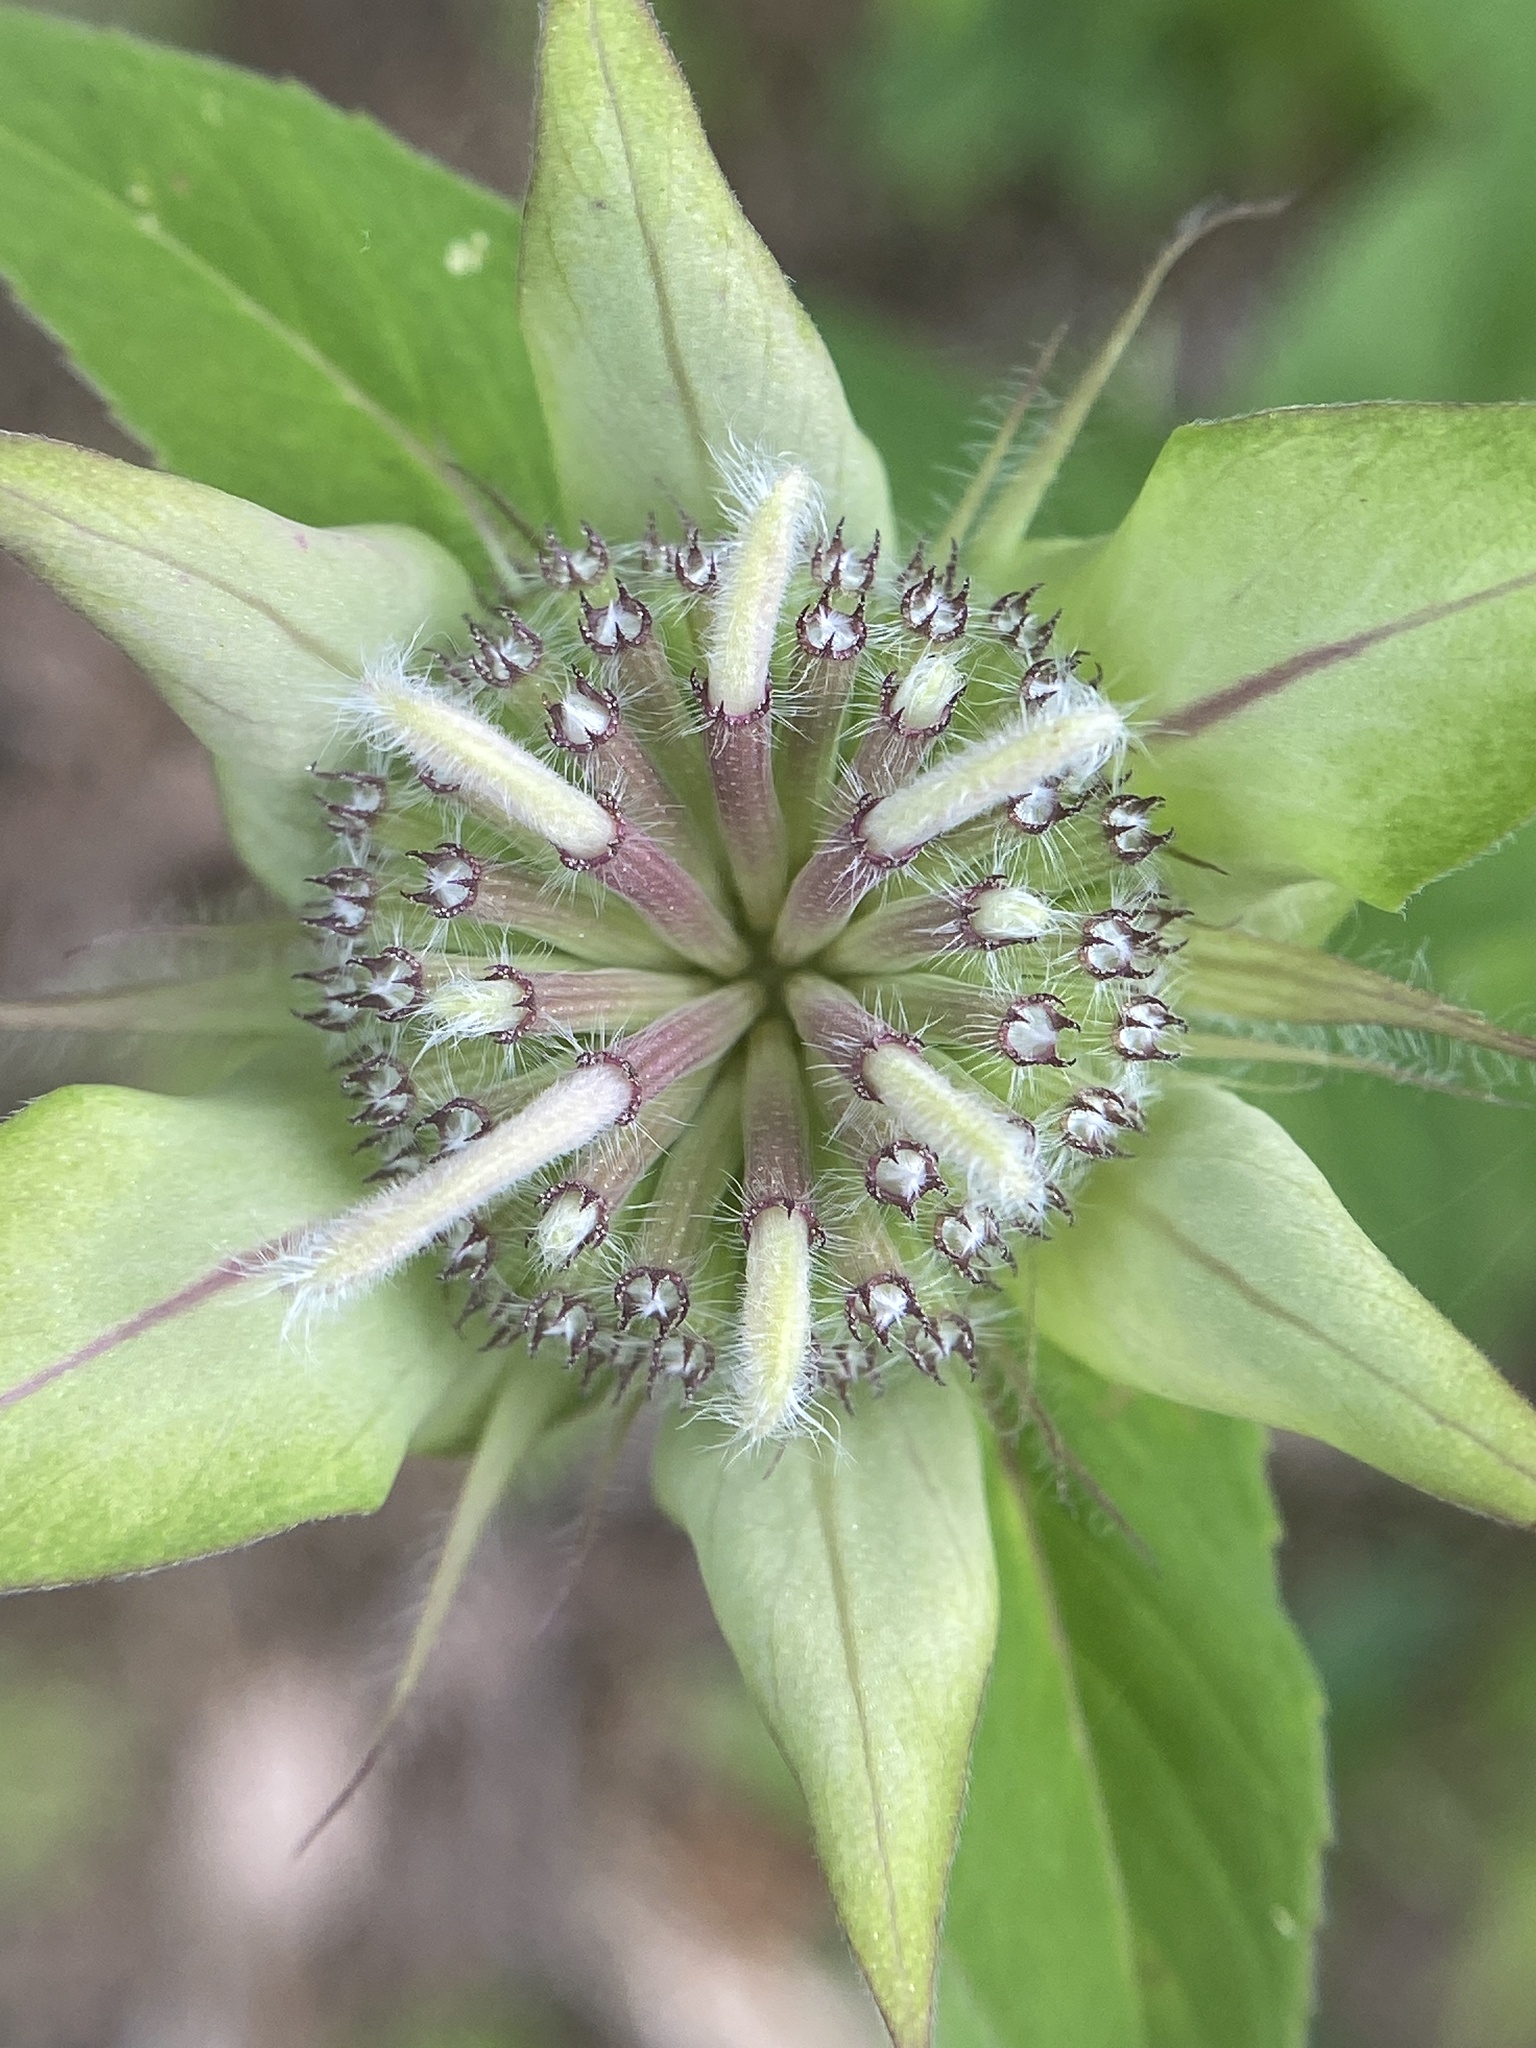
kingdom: Plantae
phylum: Tracheophyta
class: Magnoliopsida
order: Lamiales
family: Lamiaceae
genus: Monarda
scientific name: Monarda austroappalachiana
